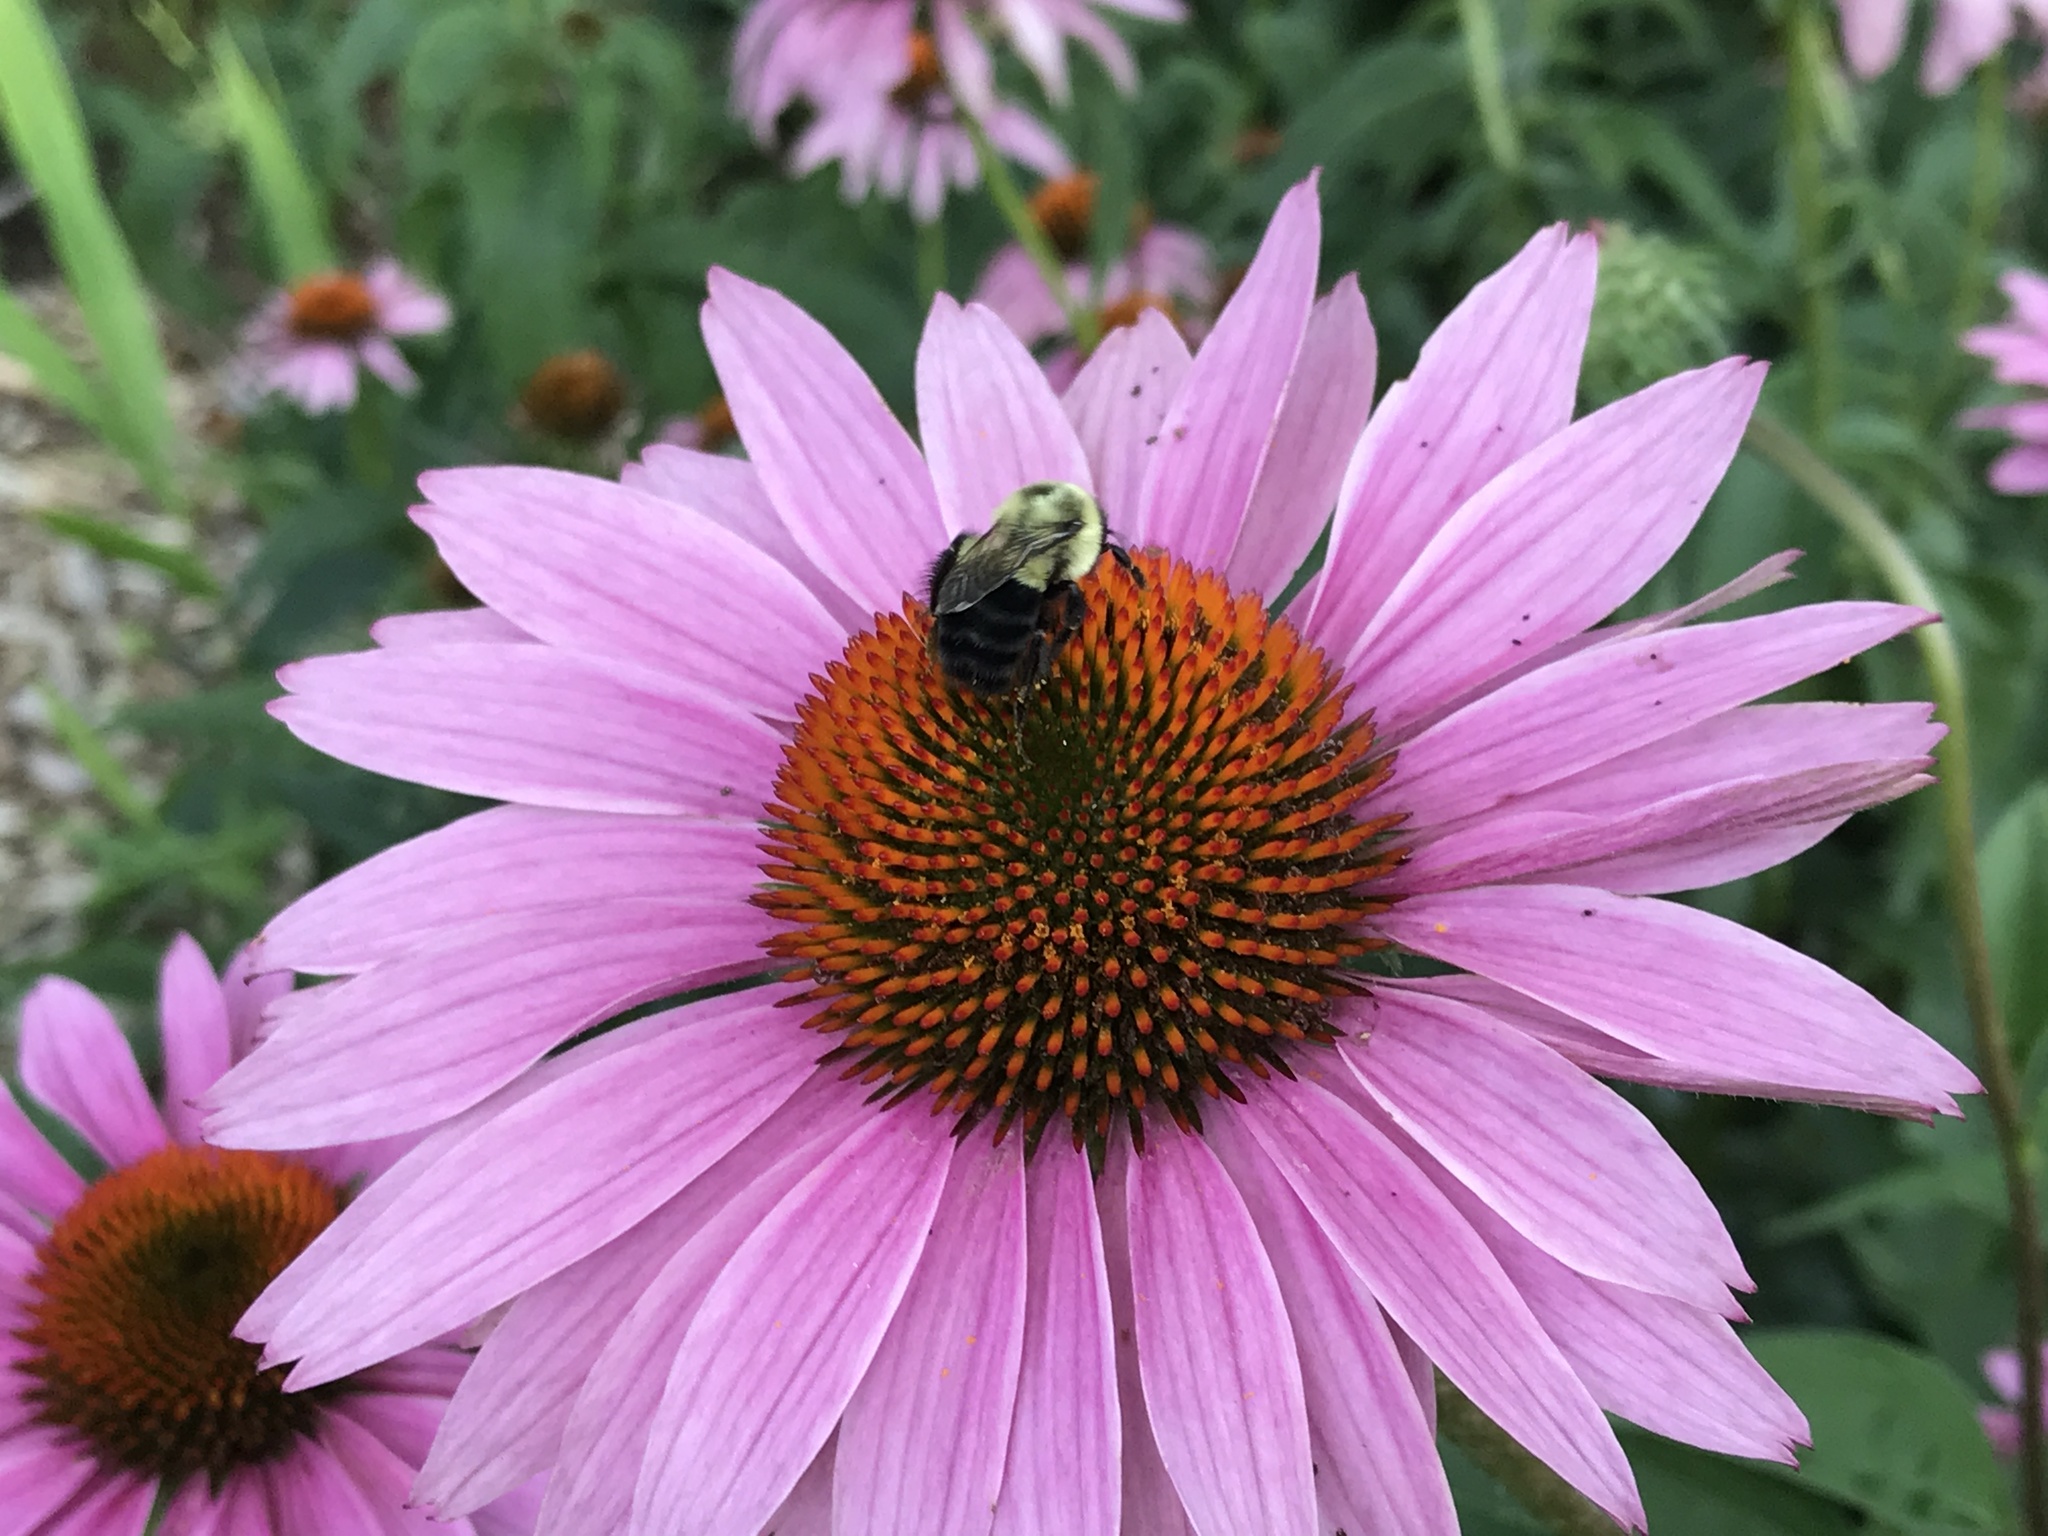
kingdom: Animalia
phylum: Arthropoda
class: Insecta
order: Hymenoptera
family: Apidae
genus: Bombus
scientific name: Bombus impatiens
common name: Common eastern bumble bee
